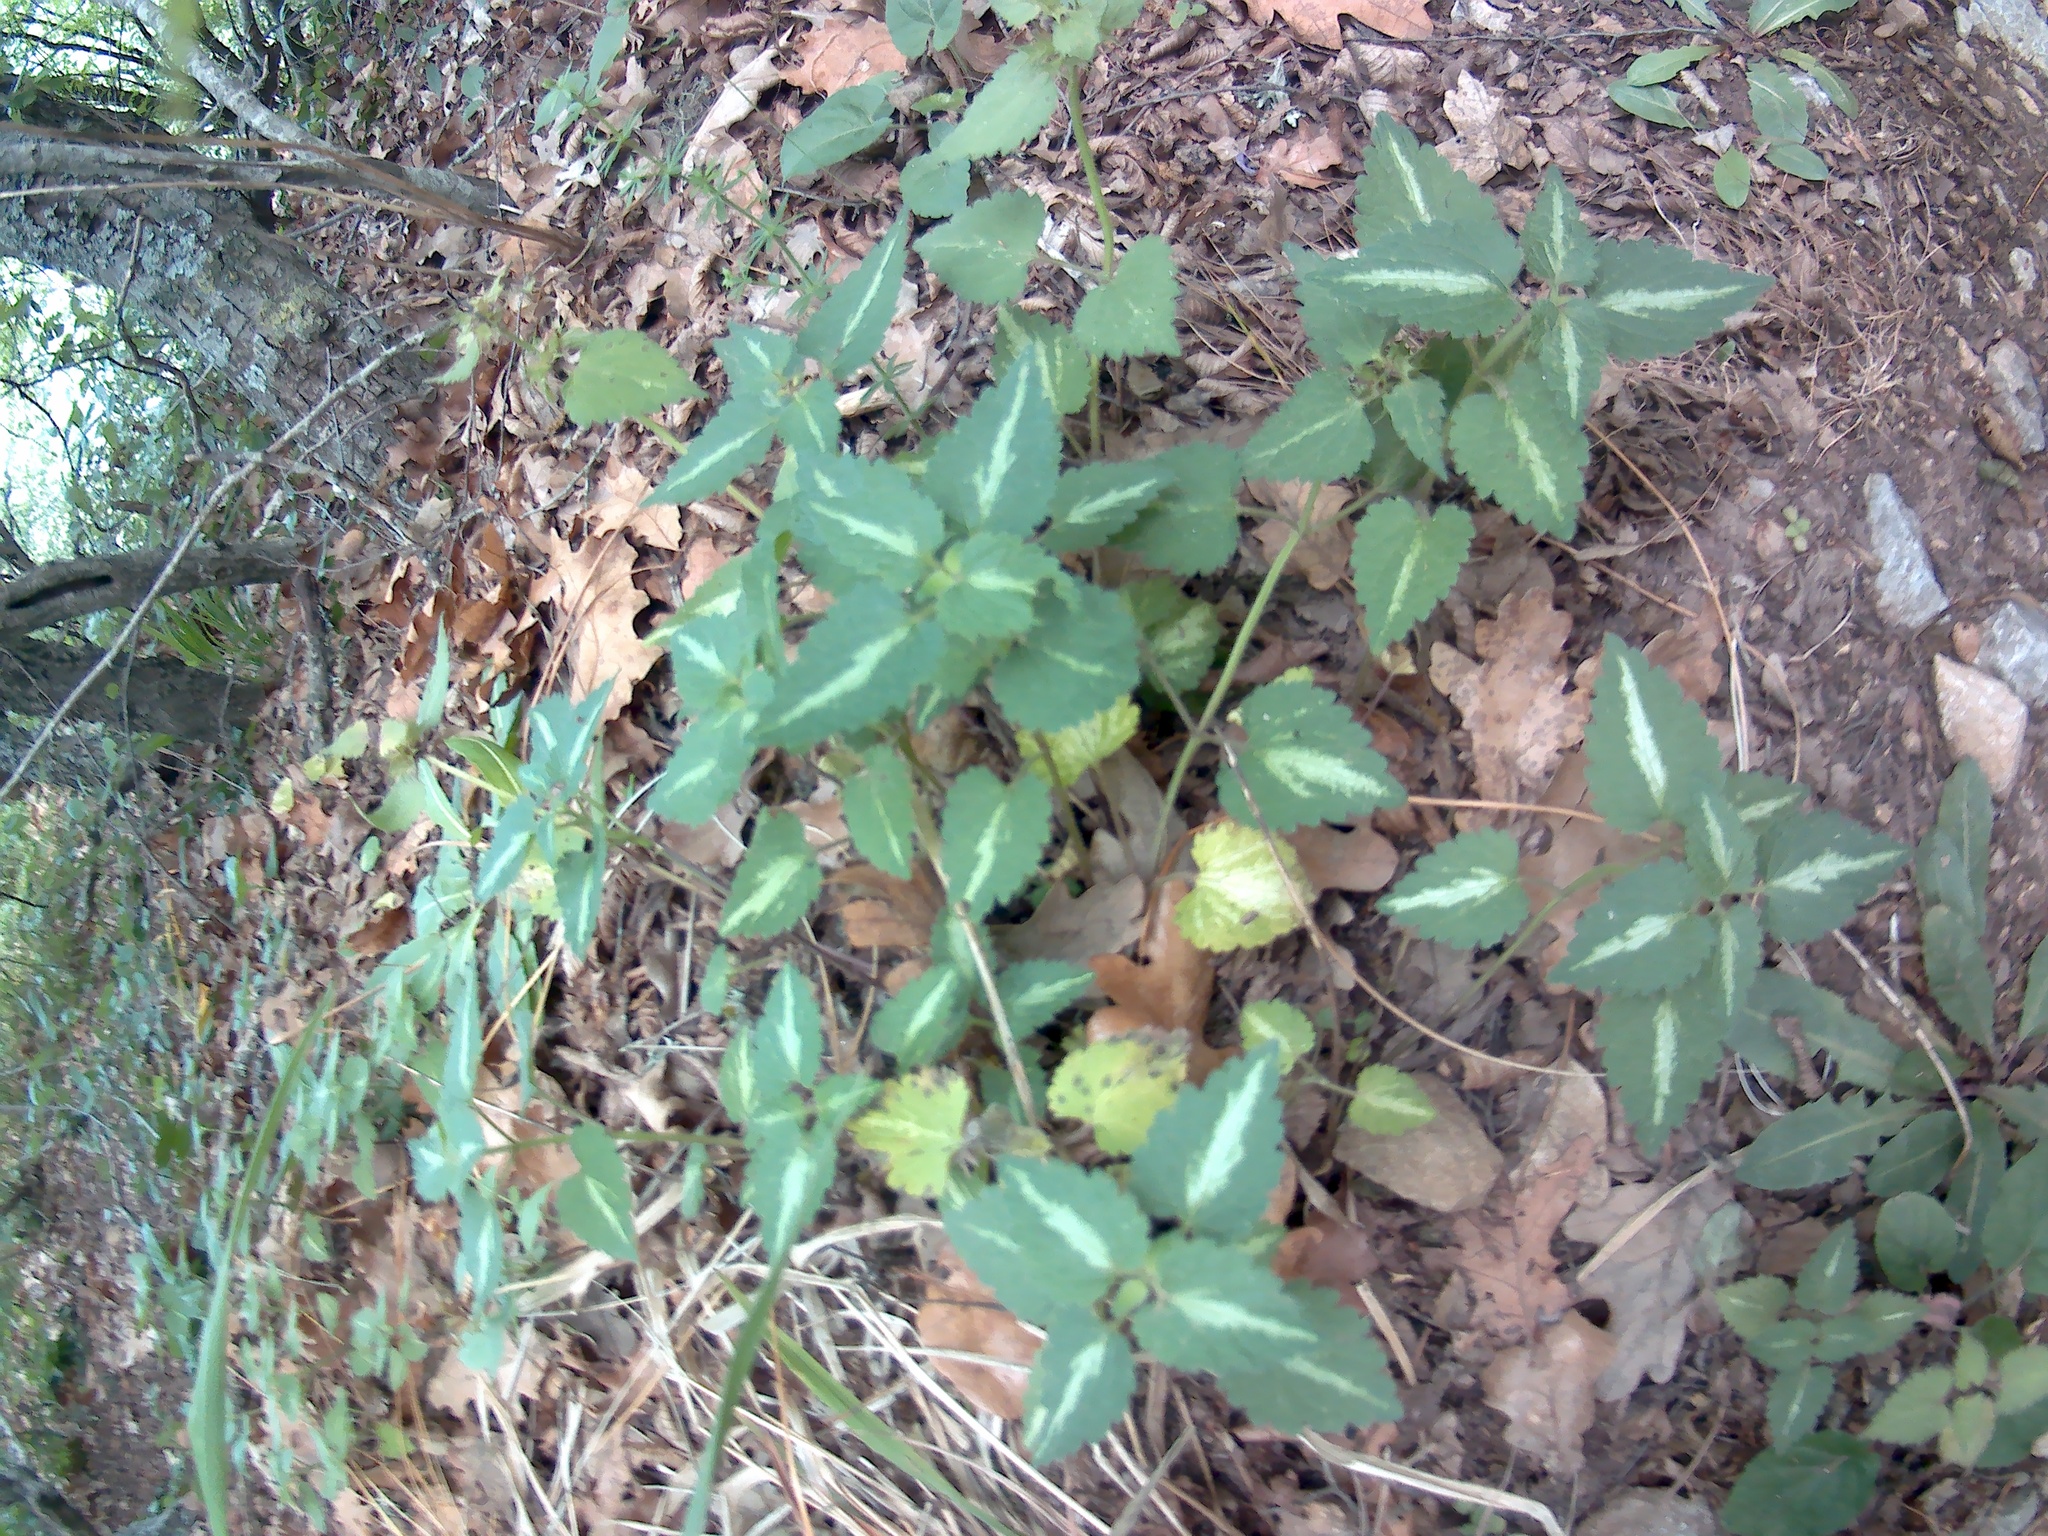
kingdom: Plantae
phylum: Tracheophyta
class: Magnoliopsida
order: Lamiales
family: Lamiaceae
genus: Lamium
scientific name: Lamium maculatum
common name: Spotted dead-nettle
